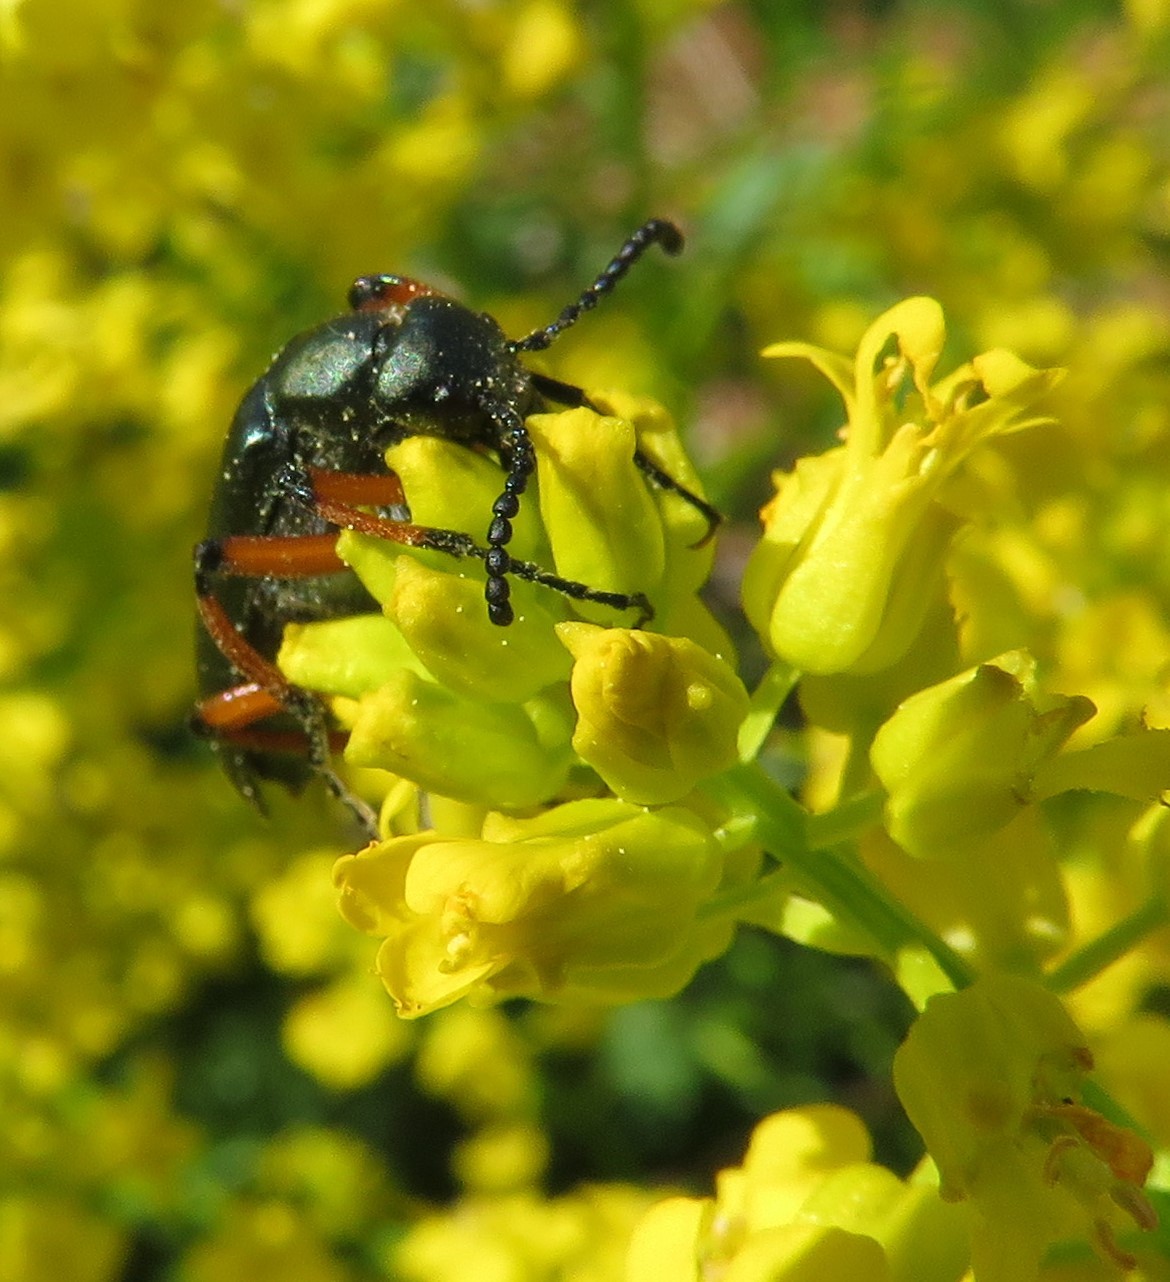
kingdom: Animalia
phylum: Arthropoda
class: Insecta
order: Coleoptera
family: Meloidae
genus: Lytta
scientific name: Lytta sayi
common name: Say's blister beetle
